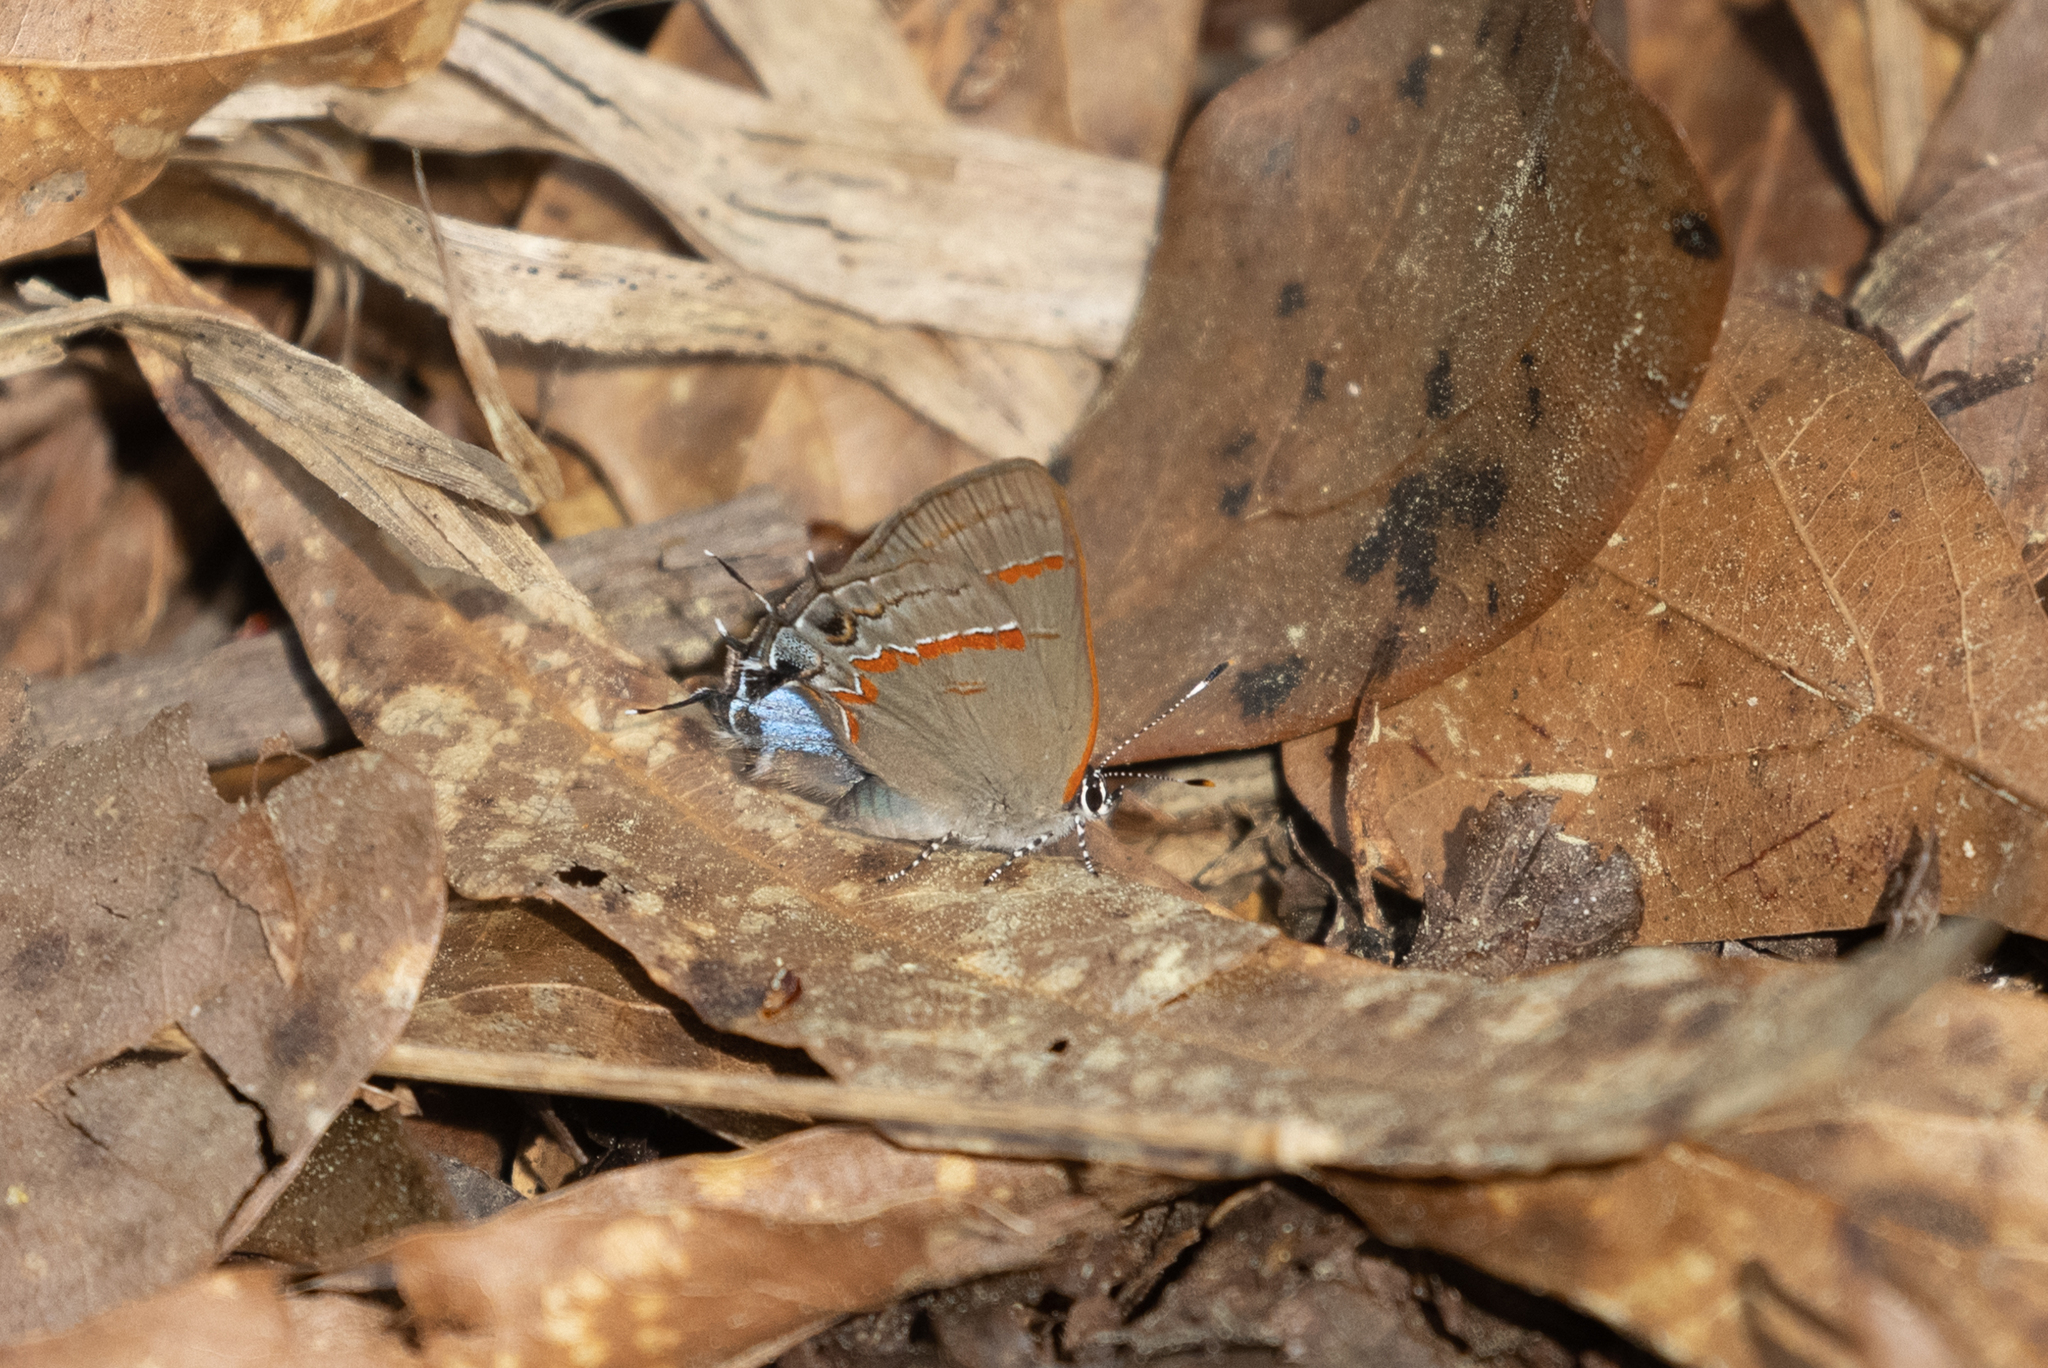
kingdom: Animalia
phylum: Arthropoda
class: Insecta
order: Lepidoptera
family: Lycaenidae
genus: Calycopis
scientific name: Calycopis cecrops
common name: Red-banded hairstreak
